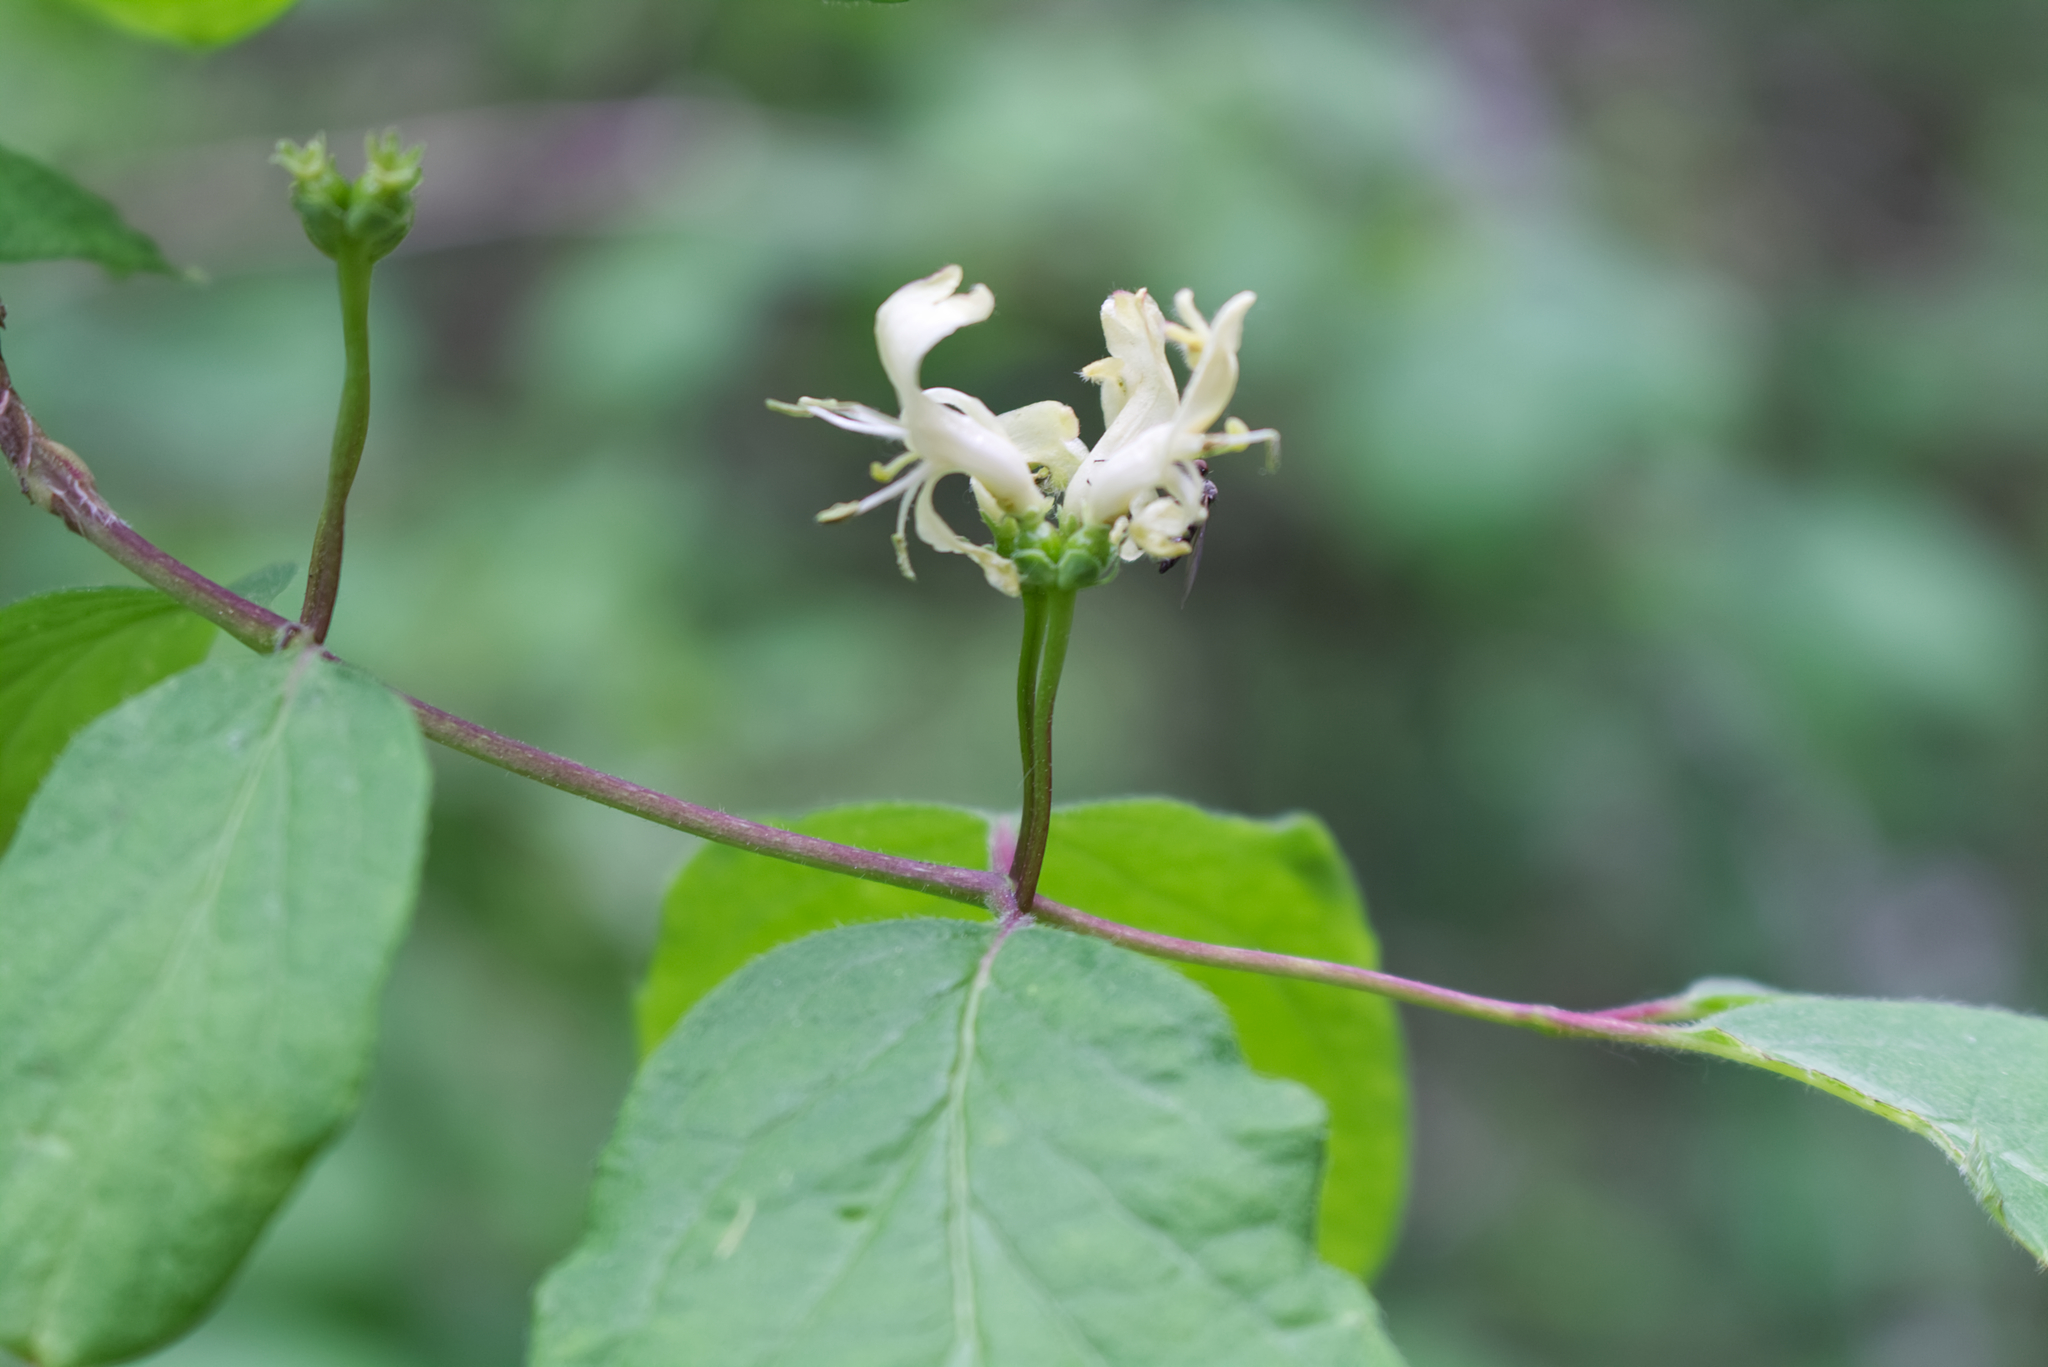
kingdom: Plantae
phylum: Tracheophyta
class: Magnoliopsida
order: Dipsacales
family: Caprifoliaceae
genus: Lonicera
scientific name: Lonicera xylosteum
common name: Fly honeysuckle
